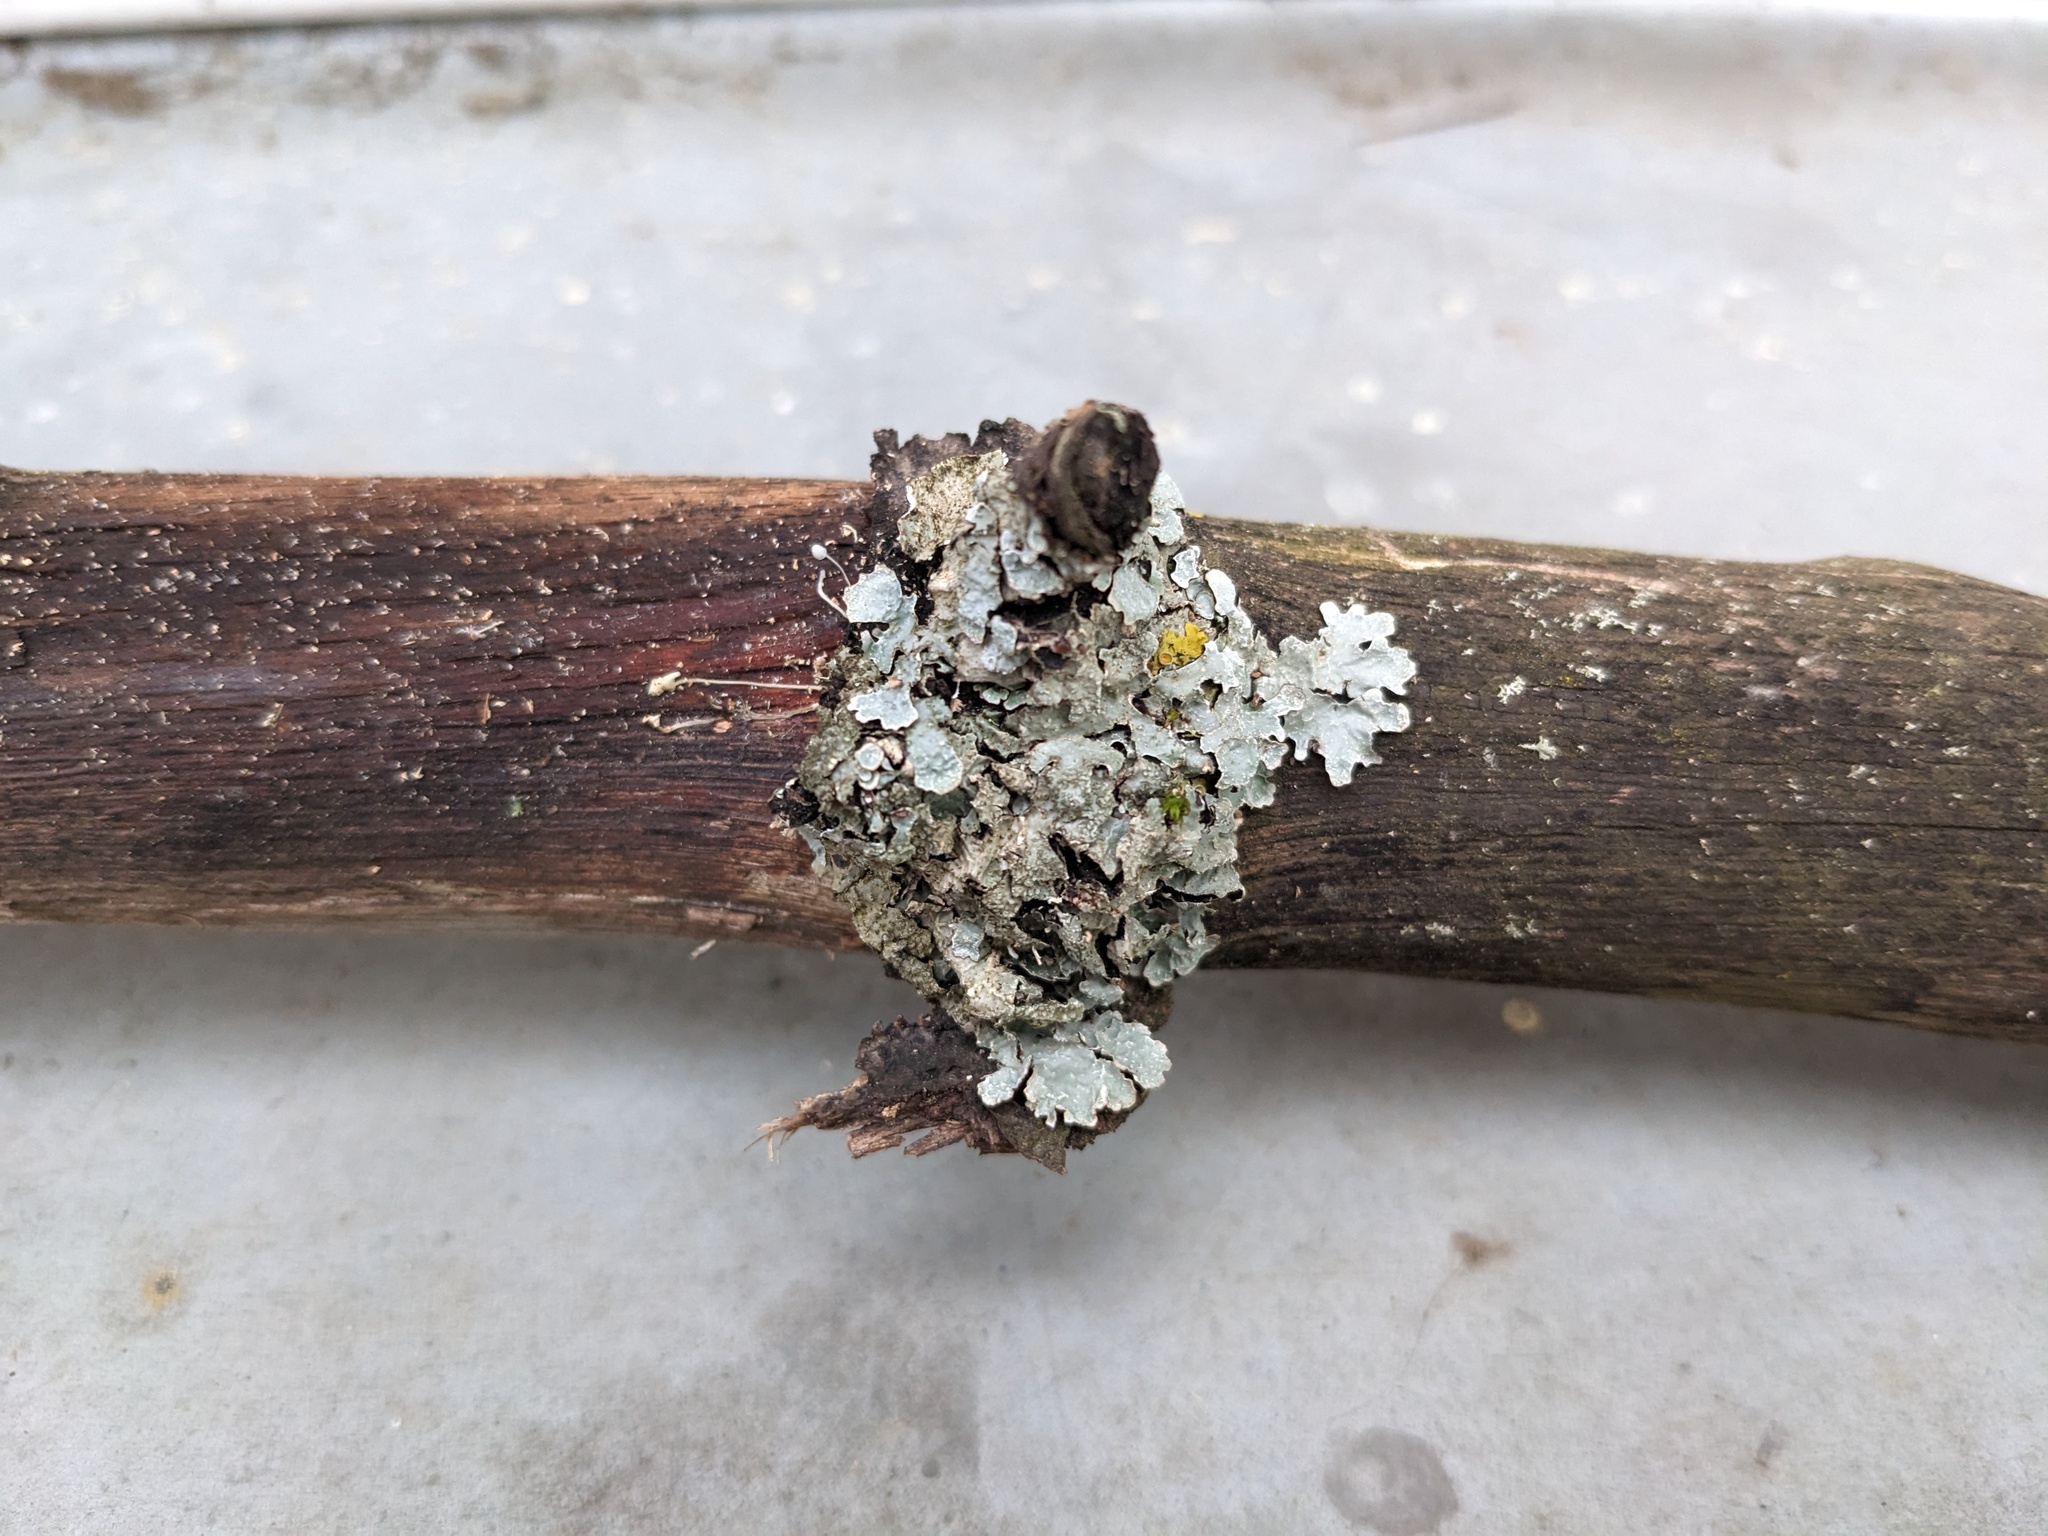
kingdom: Fungi
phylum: Ascomycota
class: Lecanoromycetes
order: Lecanorales
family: Parmeliaceae
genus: Parmelia
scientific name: Parmelia sulcata
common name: Netted shield lichen
